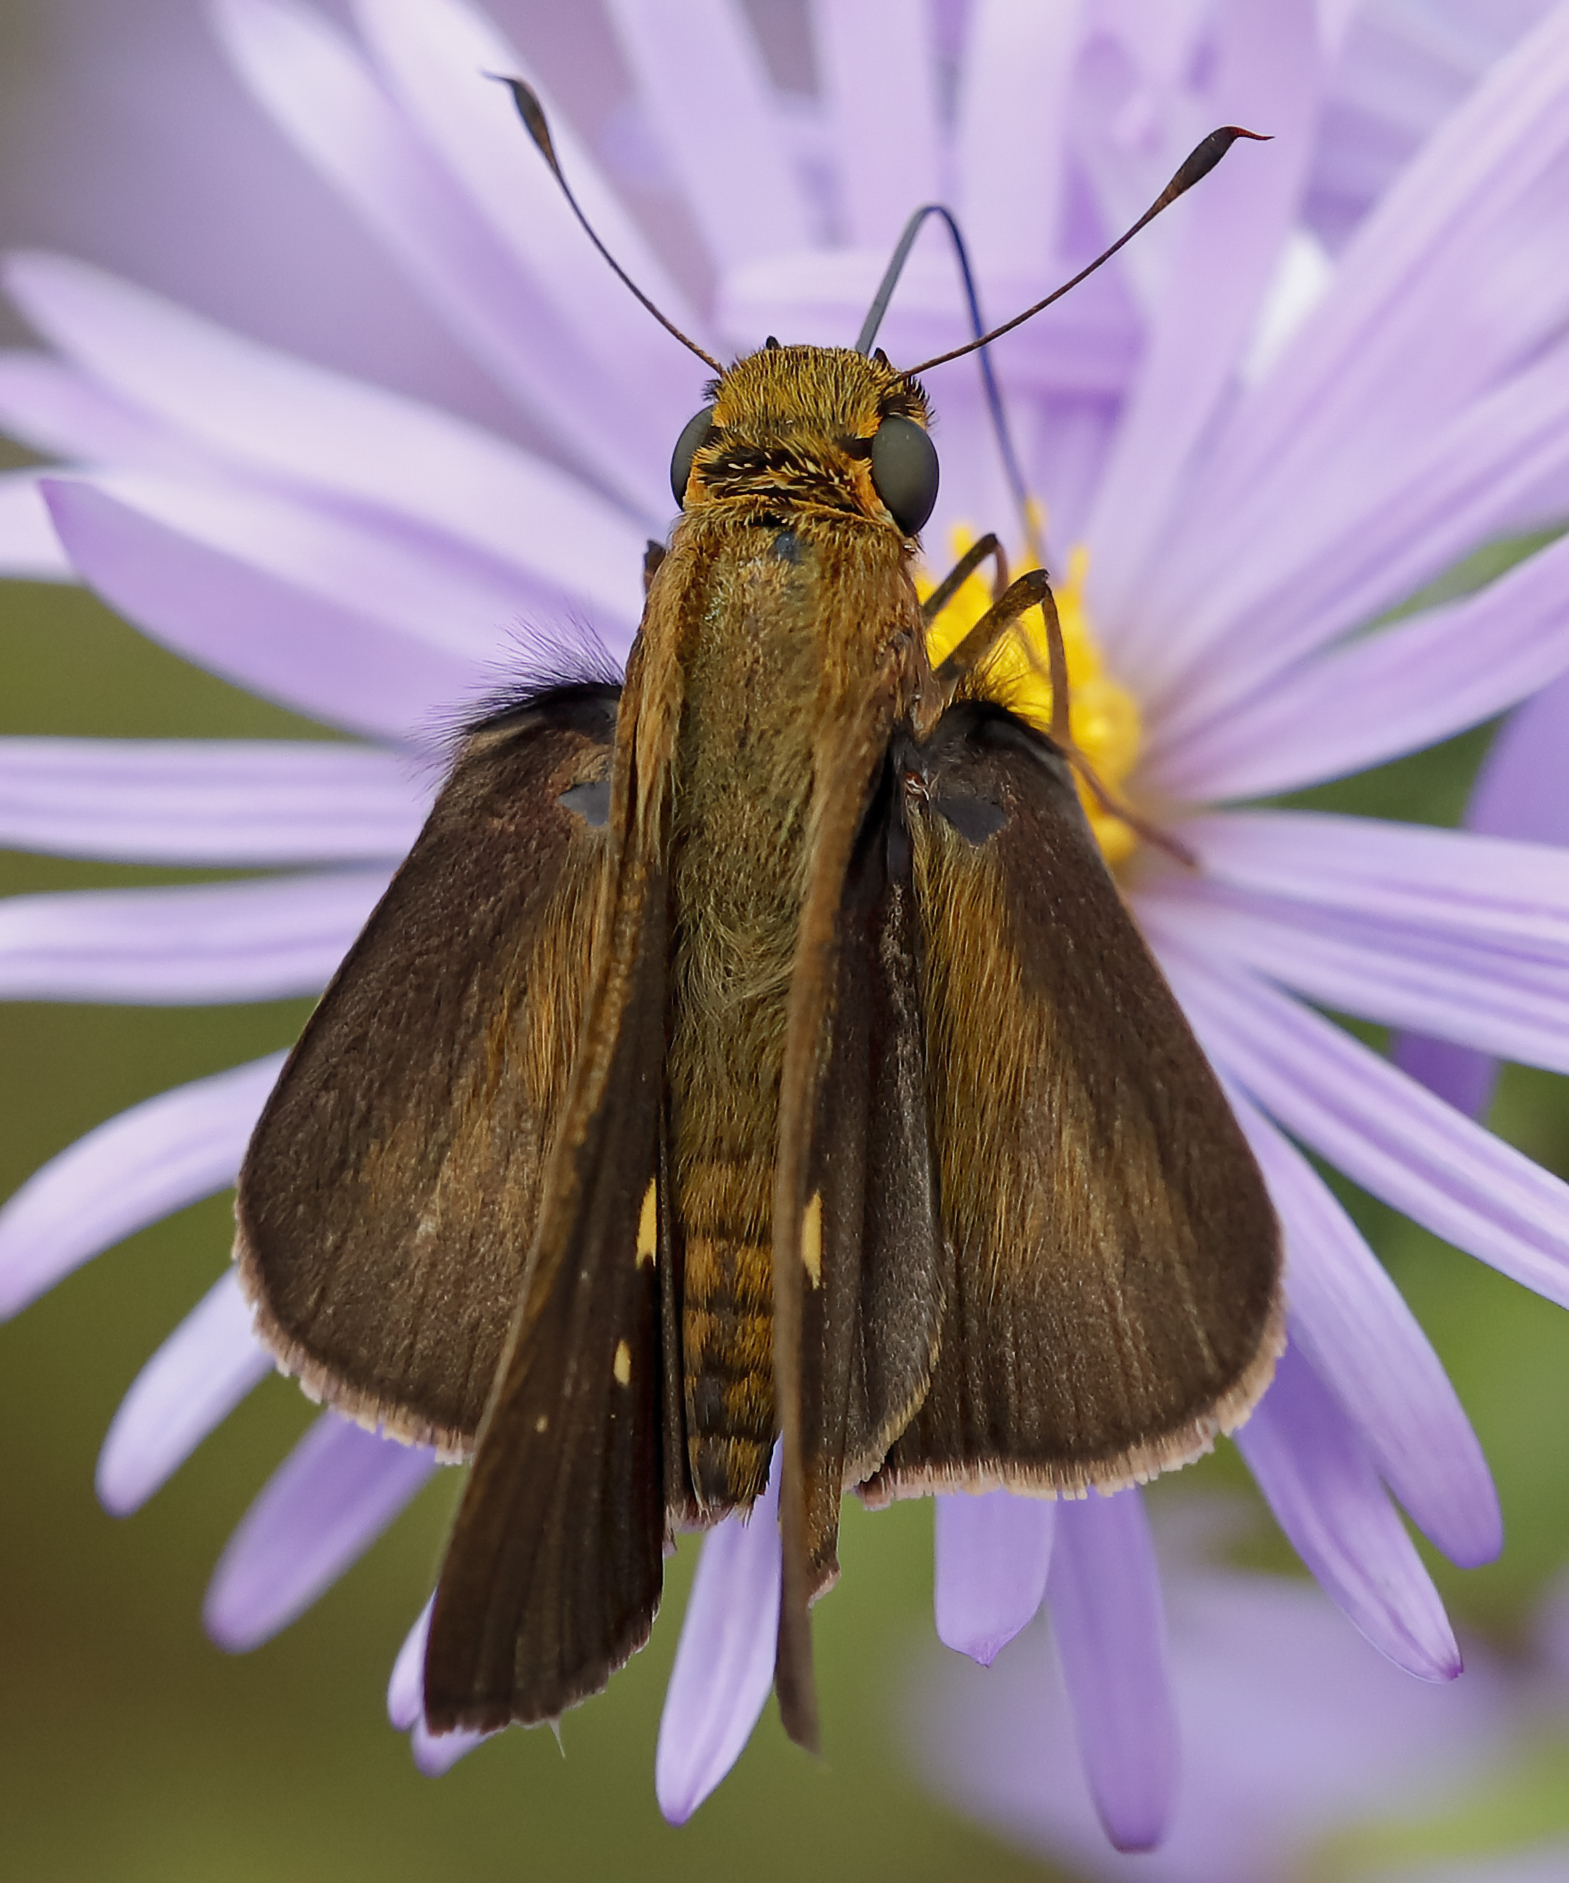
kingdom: Animalia
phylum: Arthropoda
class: Insecta
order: Lepidoptera
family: Hesperiidae
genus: Panoquina
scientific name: Panoquina ocola
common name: Ocola skipper
